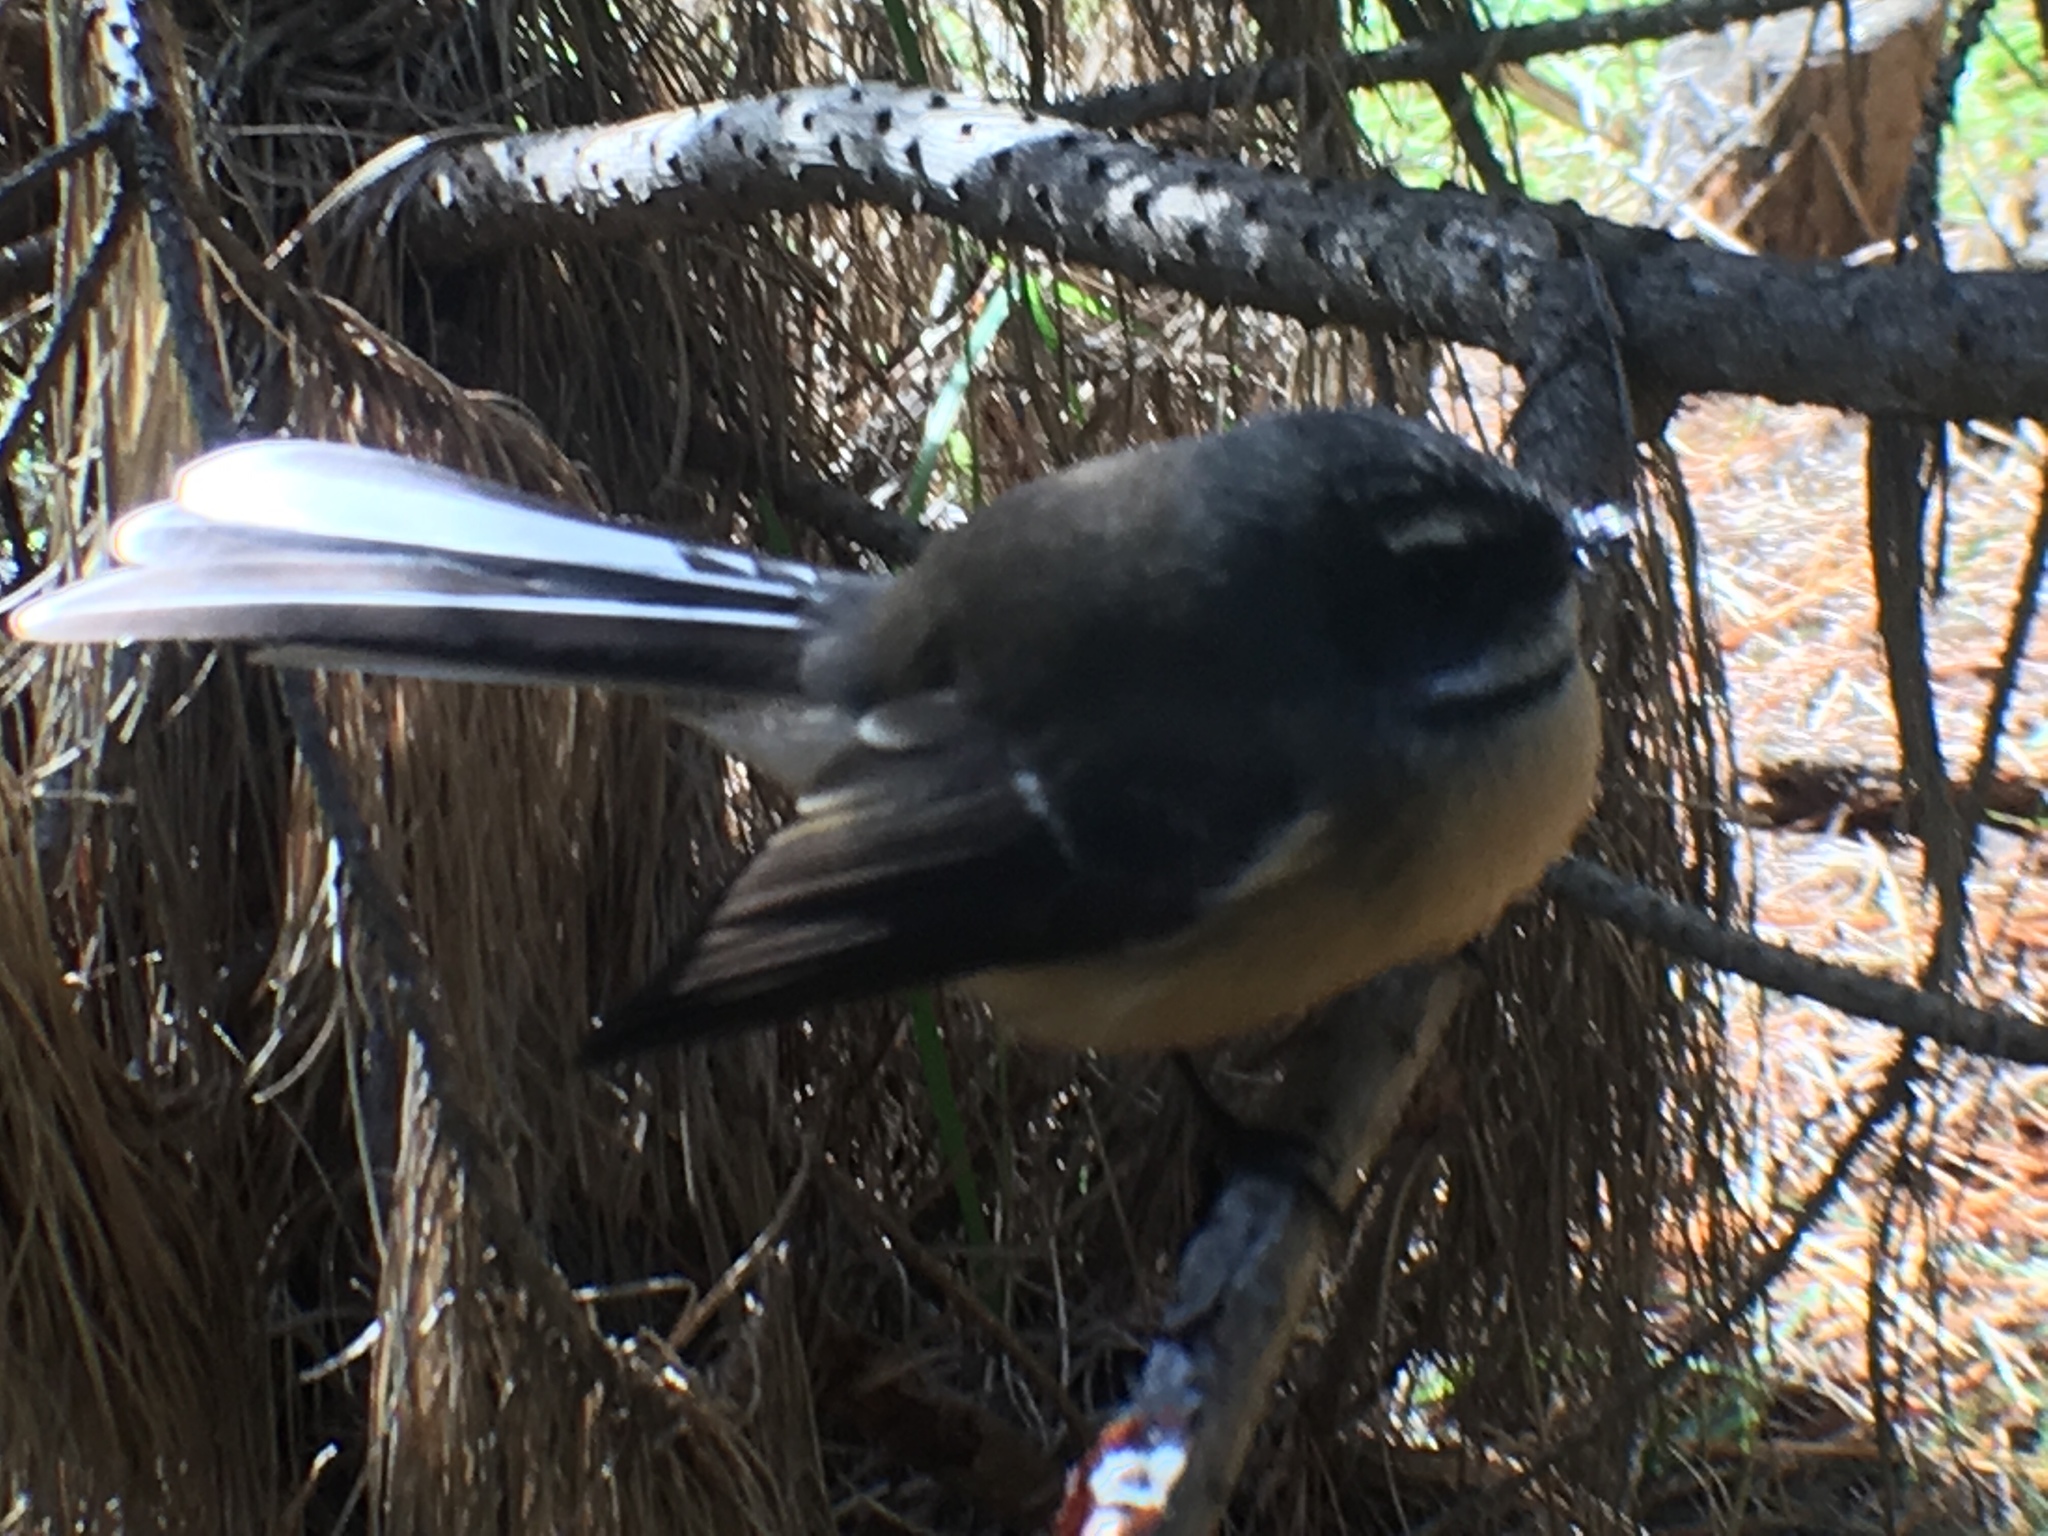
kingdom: Animalia
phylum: Chordata
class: Aves
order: Passeriformes
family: Rhipiduridae
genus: Rhipidura
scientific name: Rhipidura fuliginosa
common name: New zealand fantail
